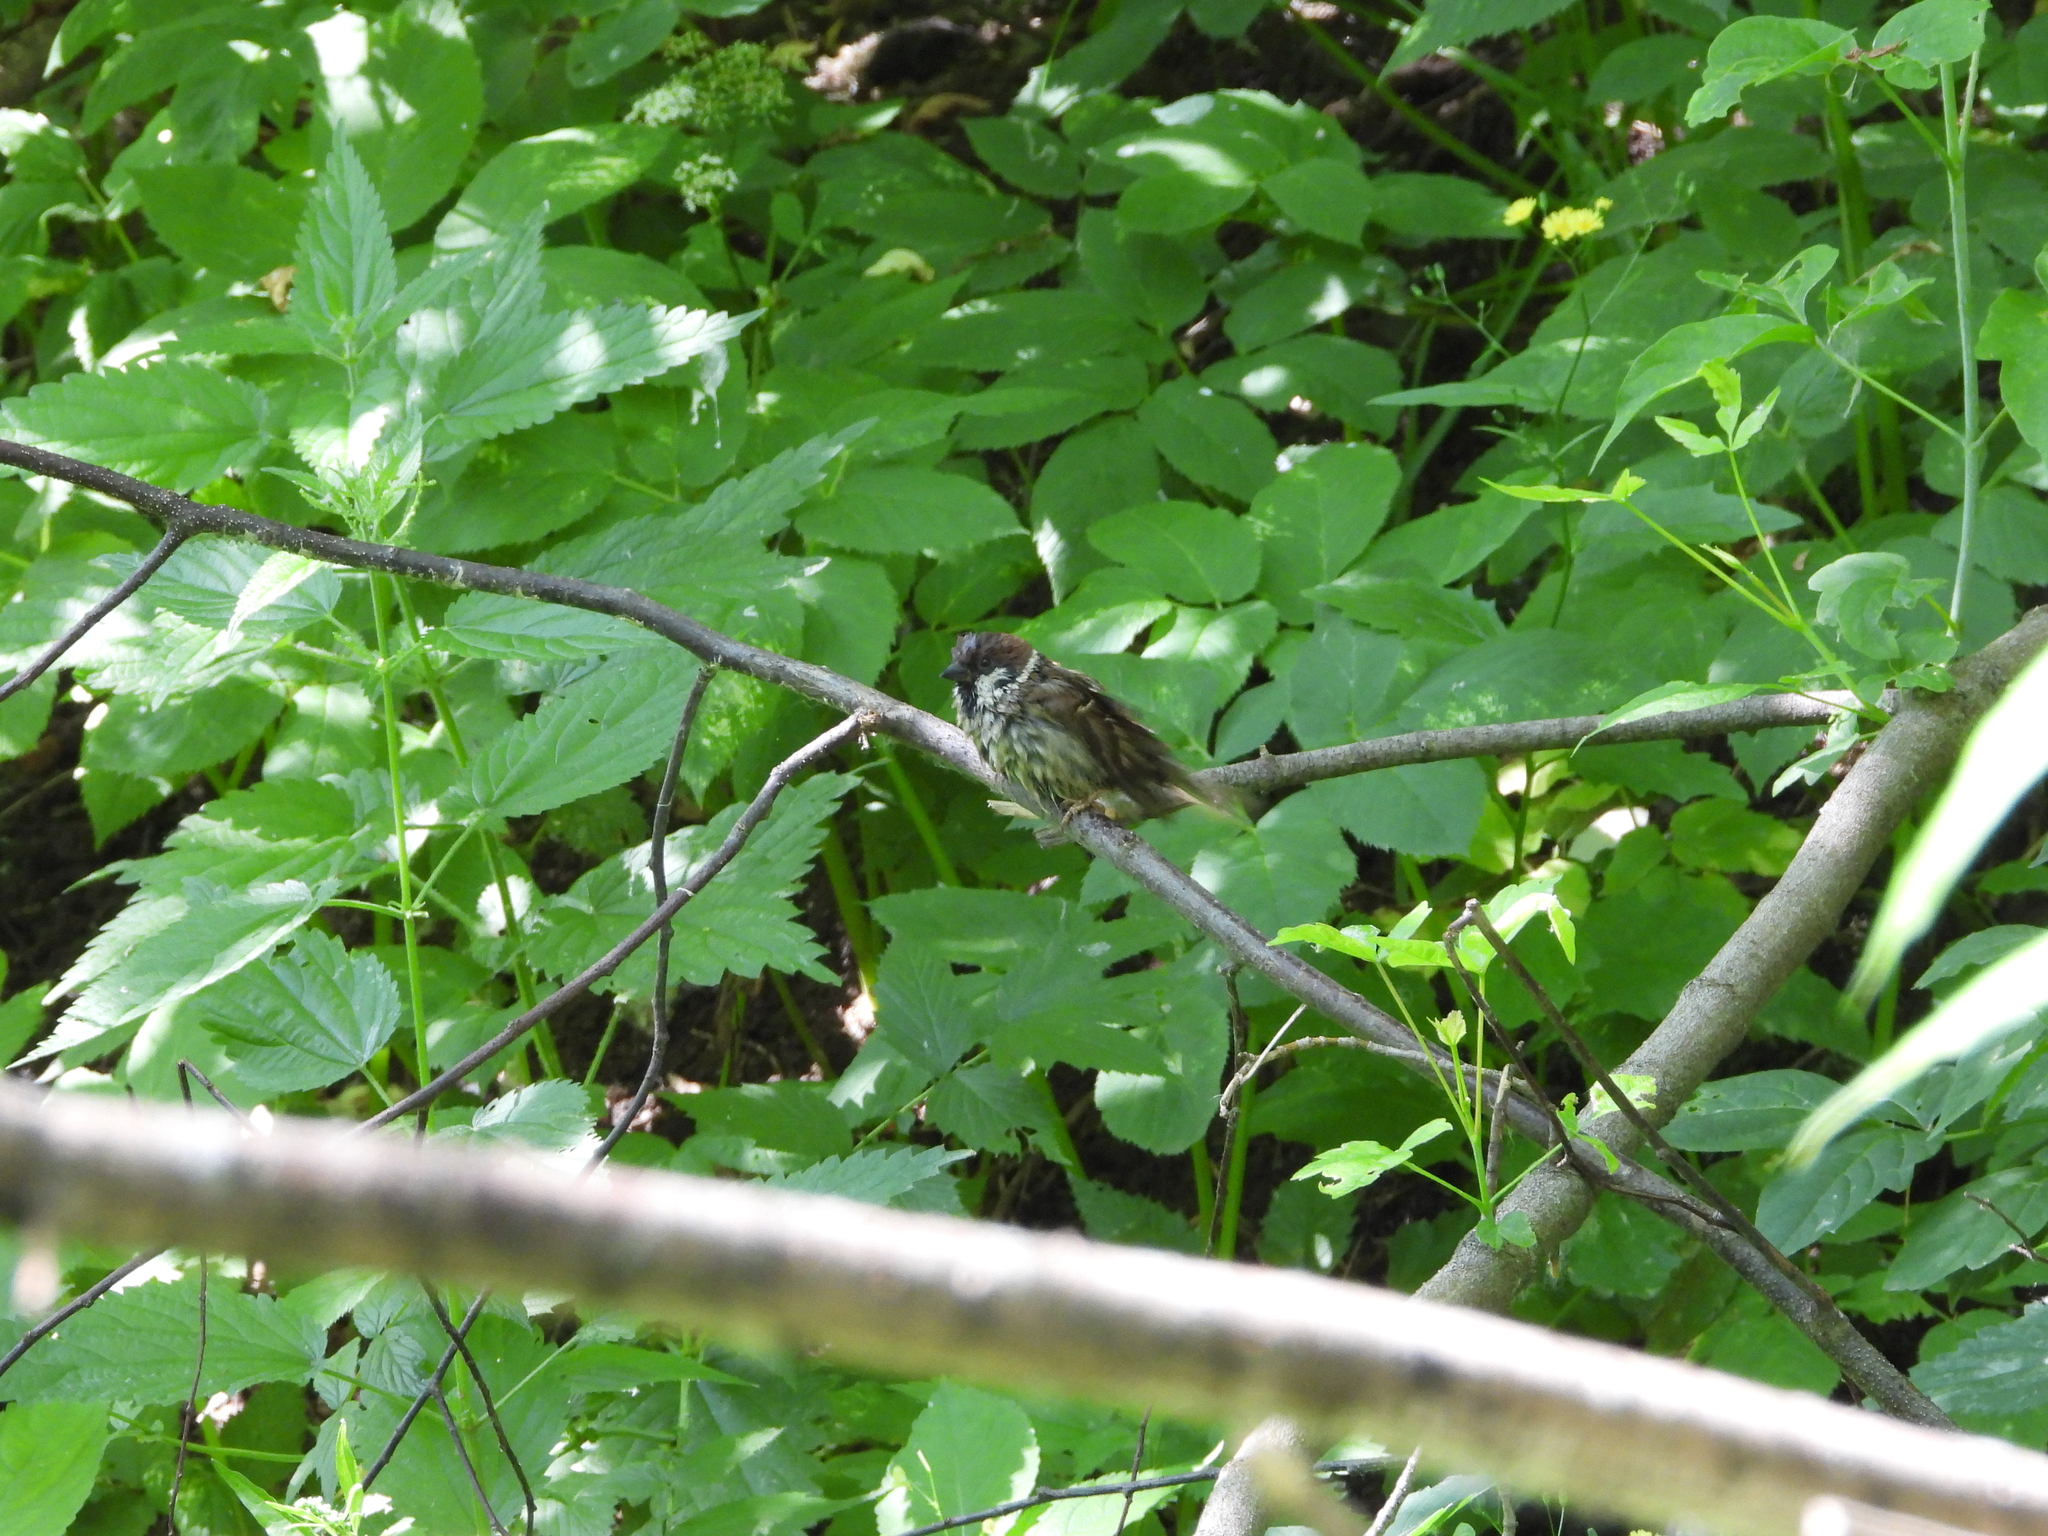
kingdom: Animalia
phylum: Chordata
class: Aves
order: Passeriformes
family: Passeridae
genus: Passer
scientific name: Passer montanus
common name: Eurasian tree sparrow
